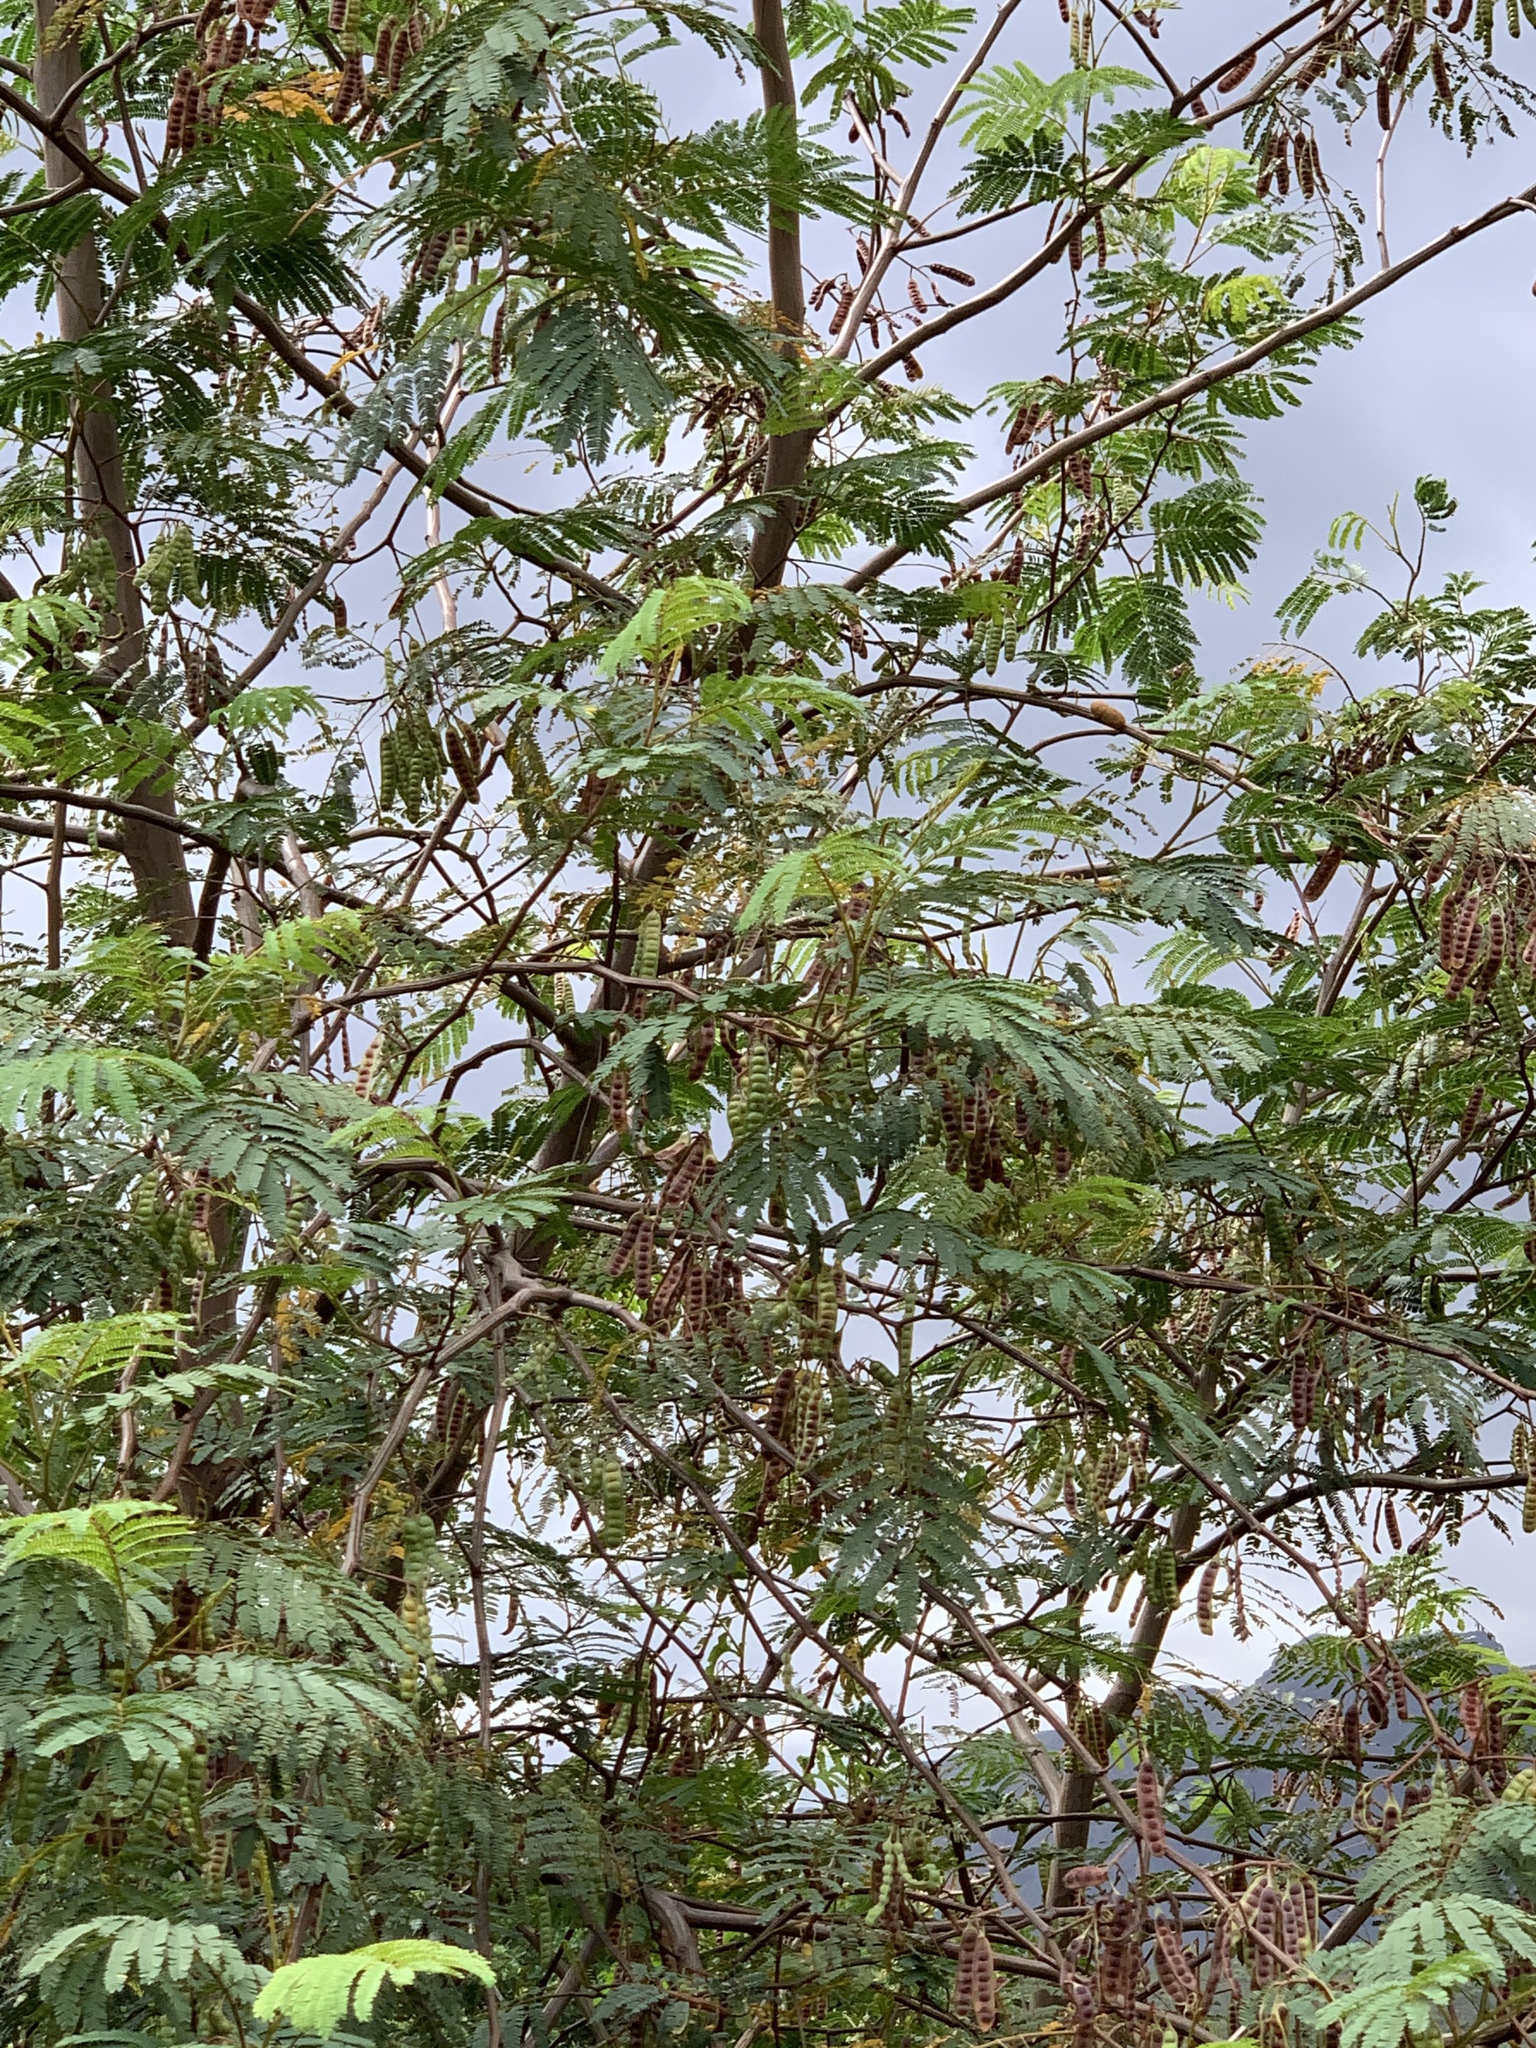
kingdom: Plantae
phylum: Tracheophyta
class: Magnoliopsida
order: Fabales
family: Fabaceae
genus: Paraserianthes
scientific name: Paraserianthes lophantha
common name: Plume albizia
